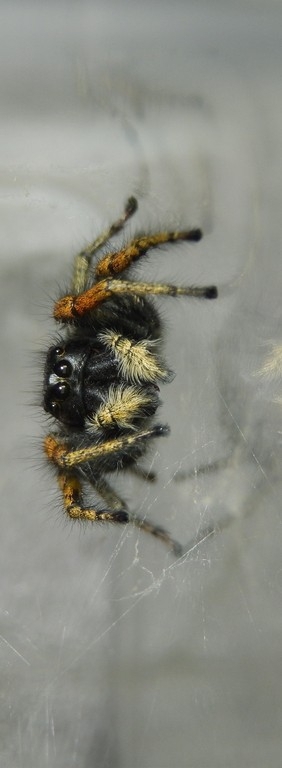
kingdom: Animalia
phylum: Arthropoda
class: Arachnida
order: Araneae
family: Salticidae
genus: Philaeus
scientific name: Philaeus chrysops
